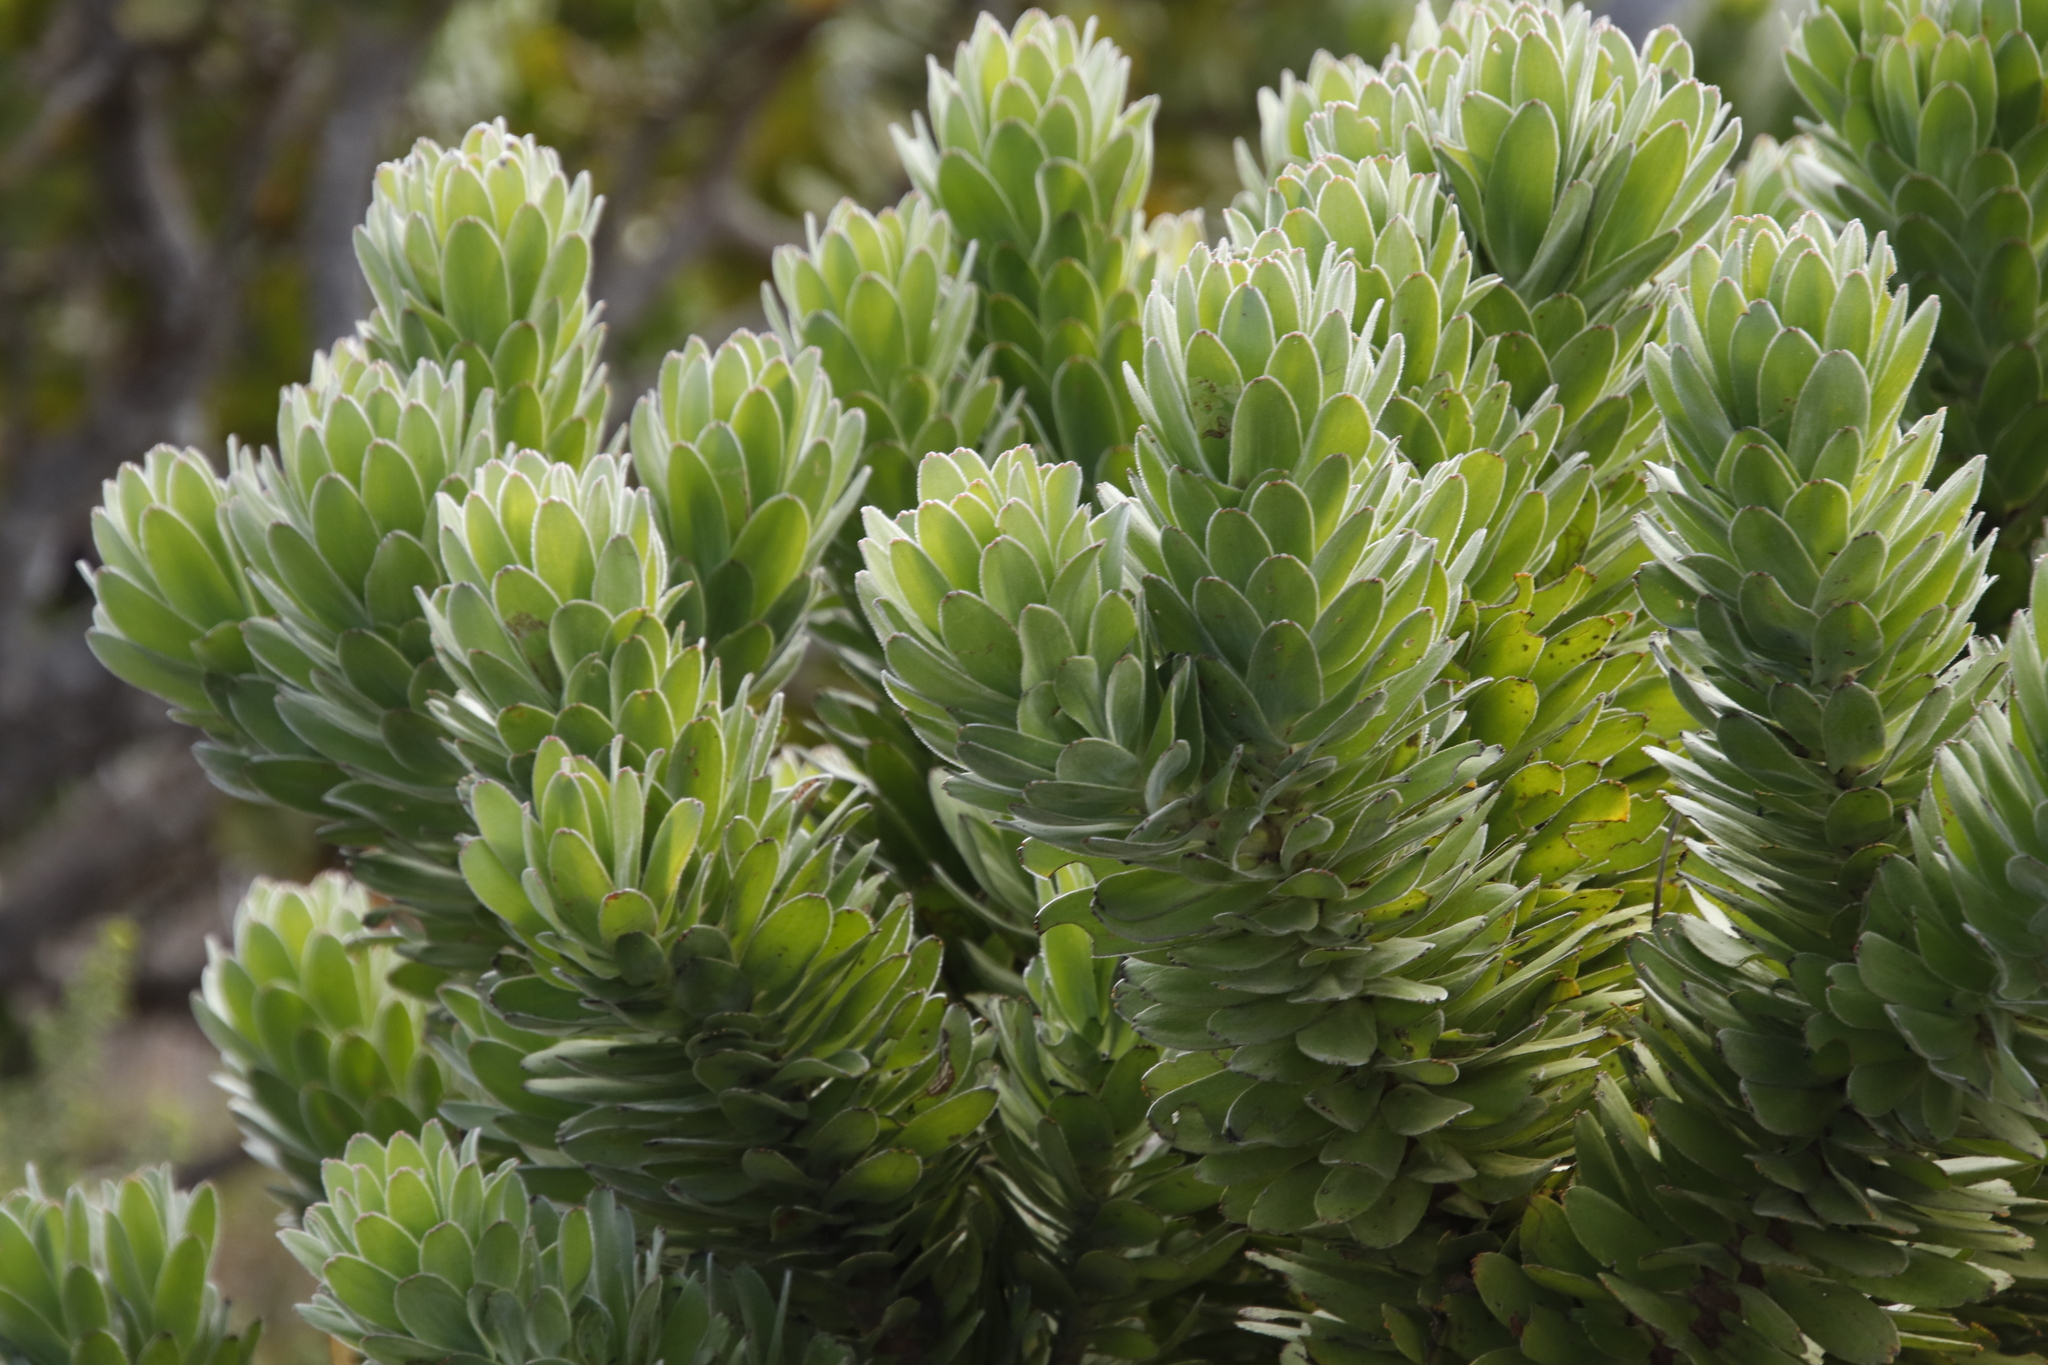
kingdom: Plantae
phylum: Tracheophyta
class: Magnoliopsida
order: Proteales
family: Proteaceae
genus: Mimetes
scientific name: Mimetes fimbriifolius
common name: Fringed bottlebrush
